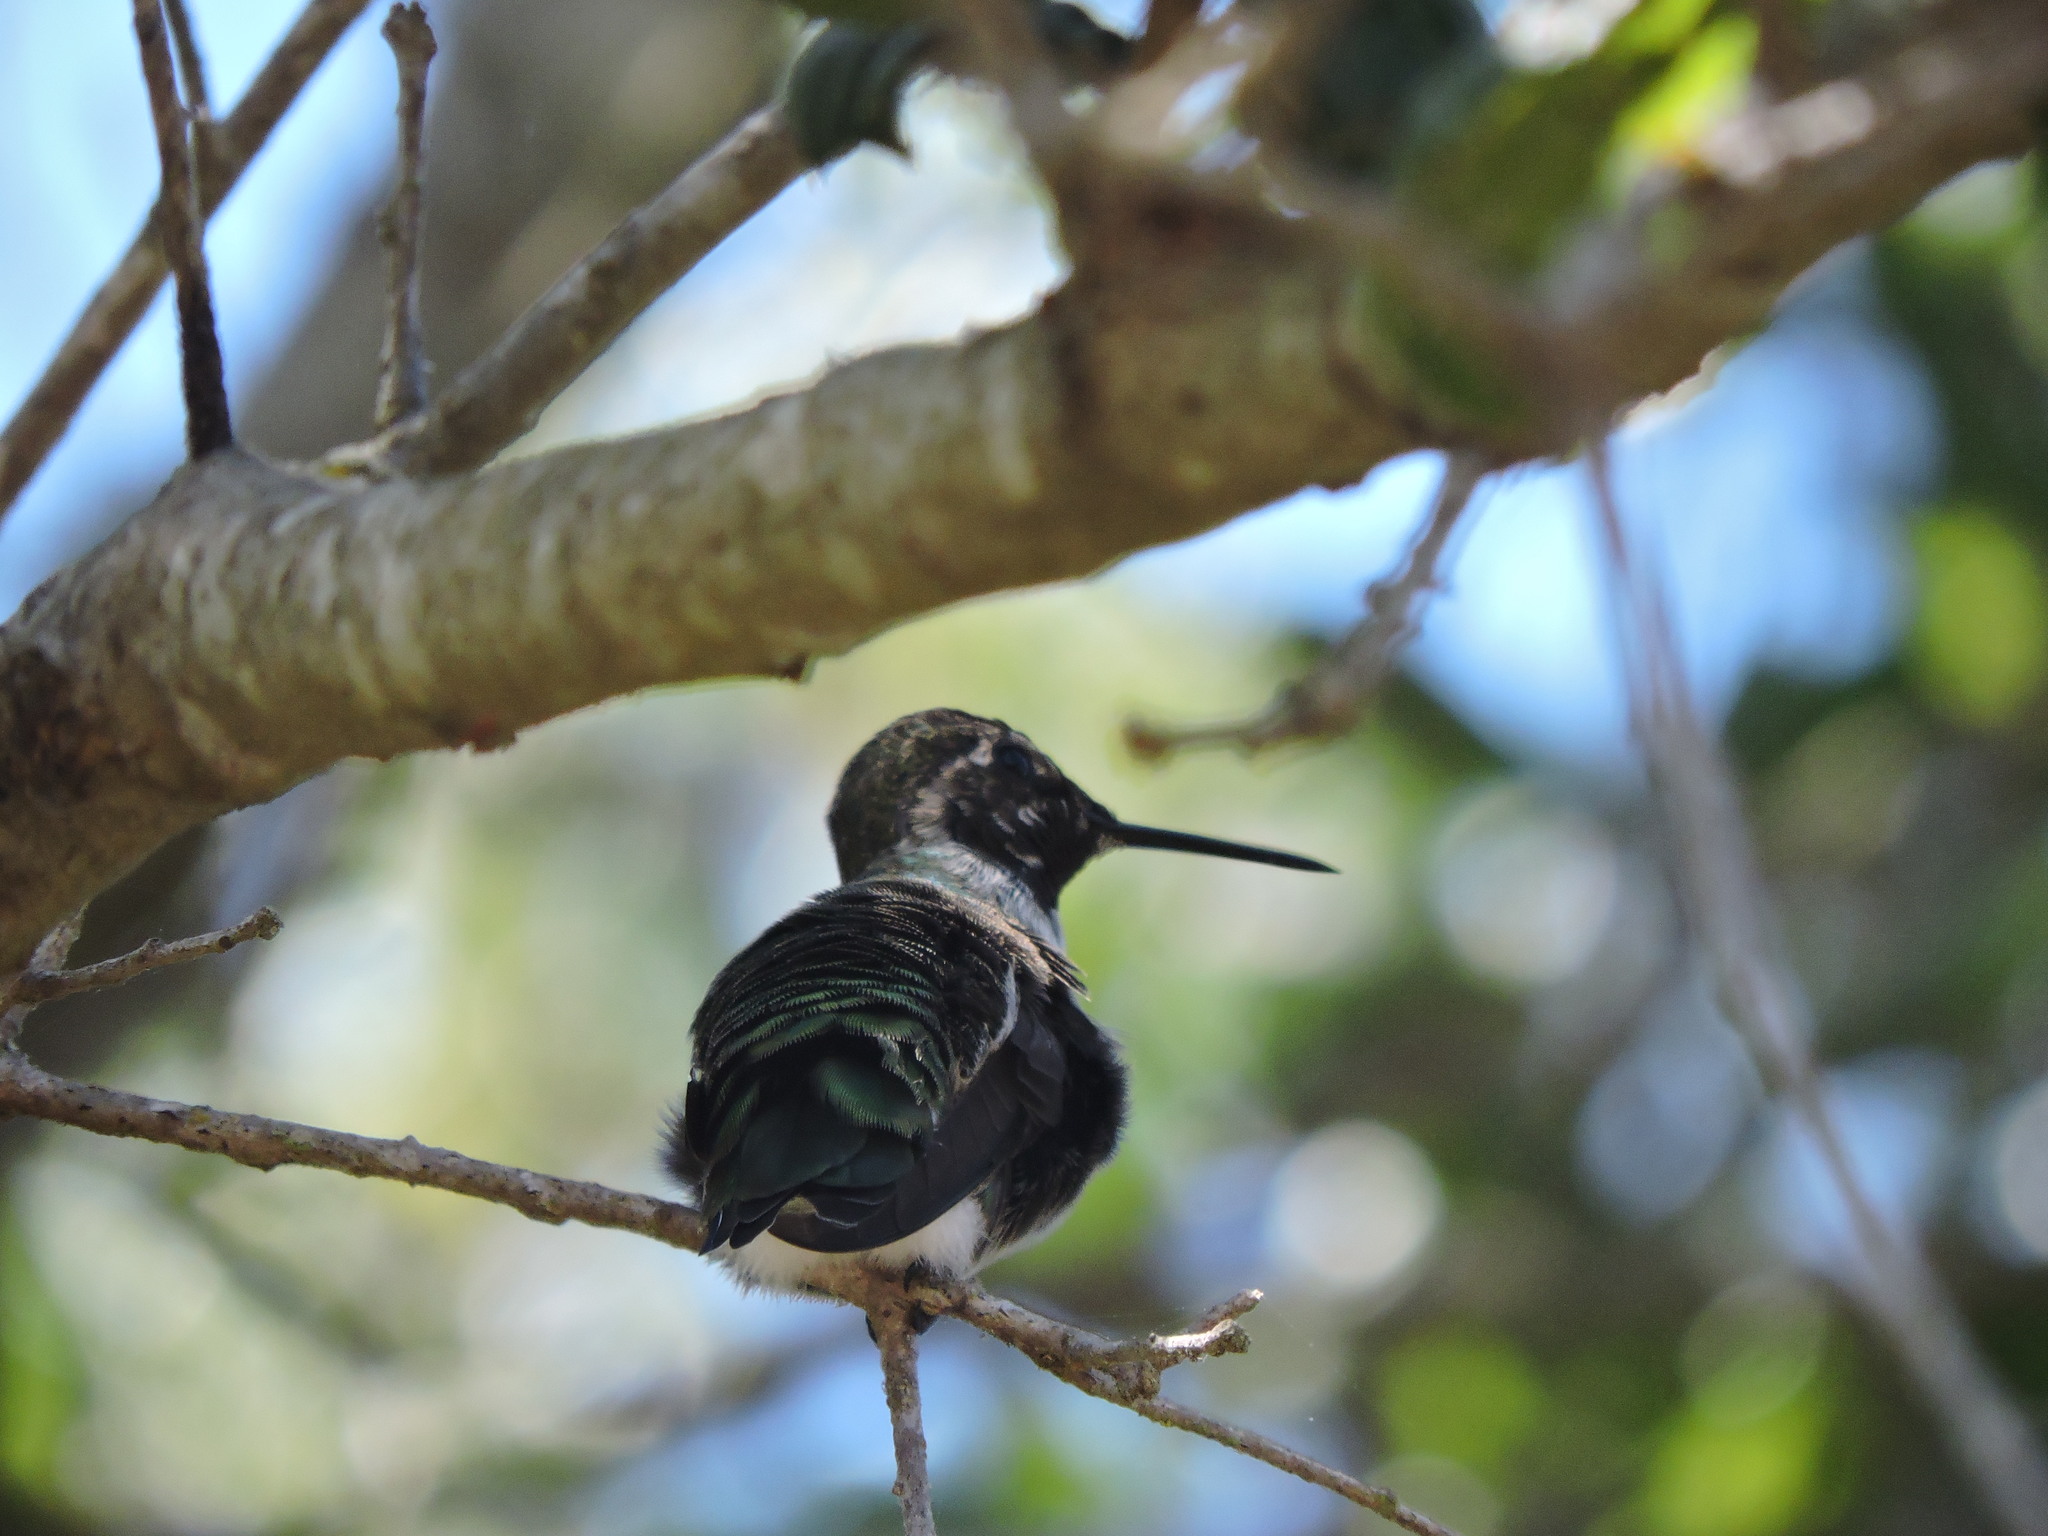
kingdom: Animalia
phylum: Chordata
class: Aves
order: Apodiformes
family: Trochilidae
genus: Calypte
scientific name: Calypte anna
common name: Anna's hummingbird
